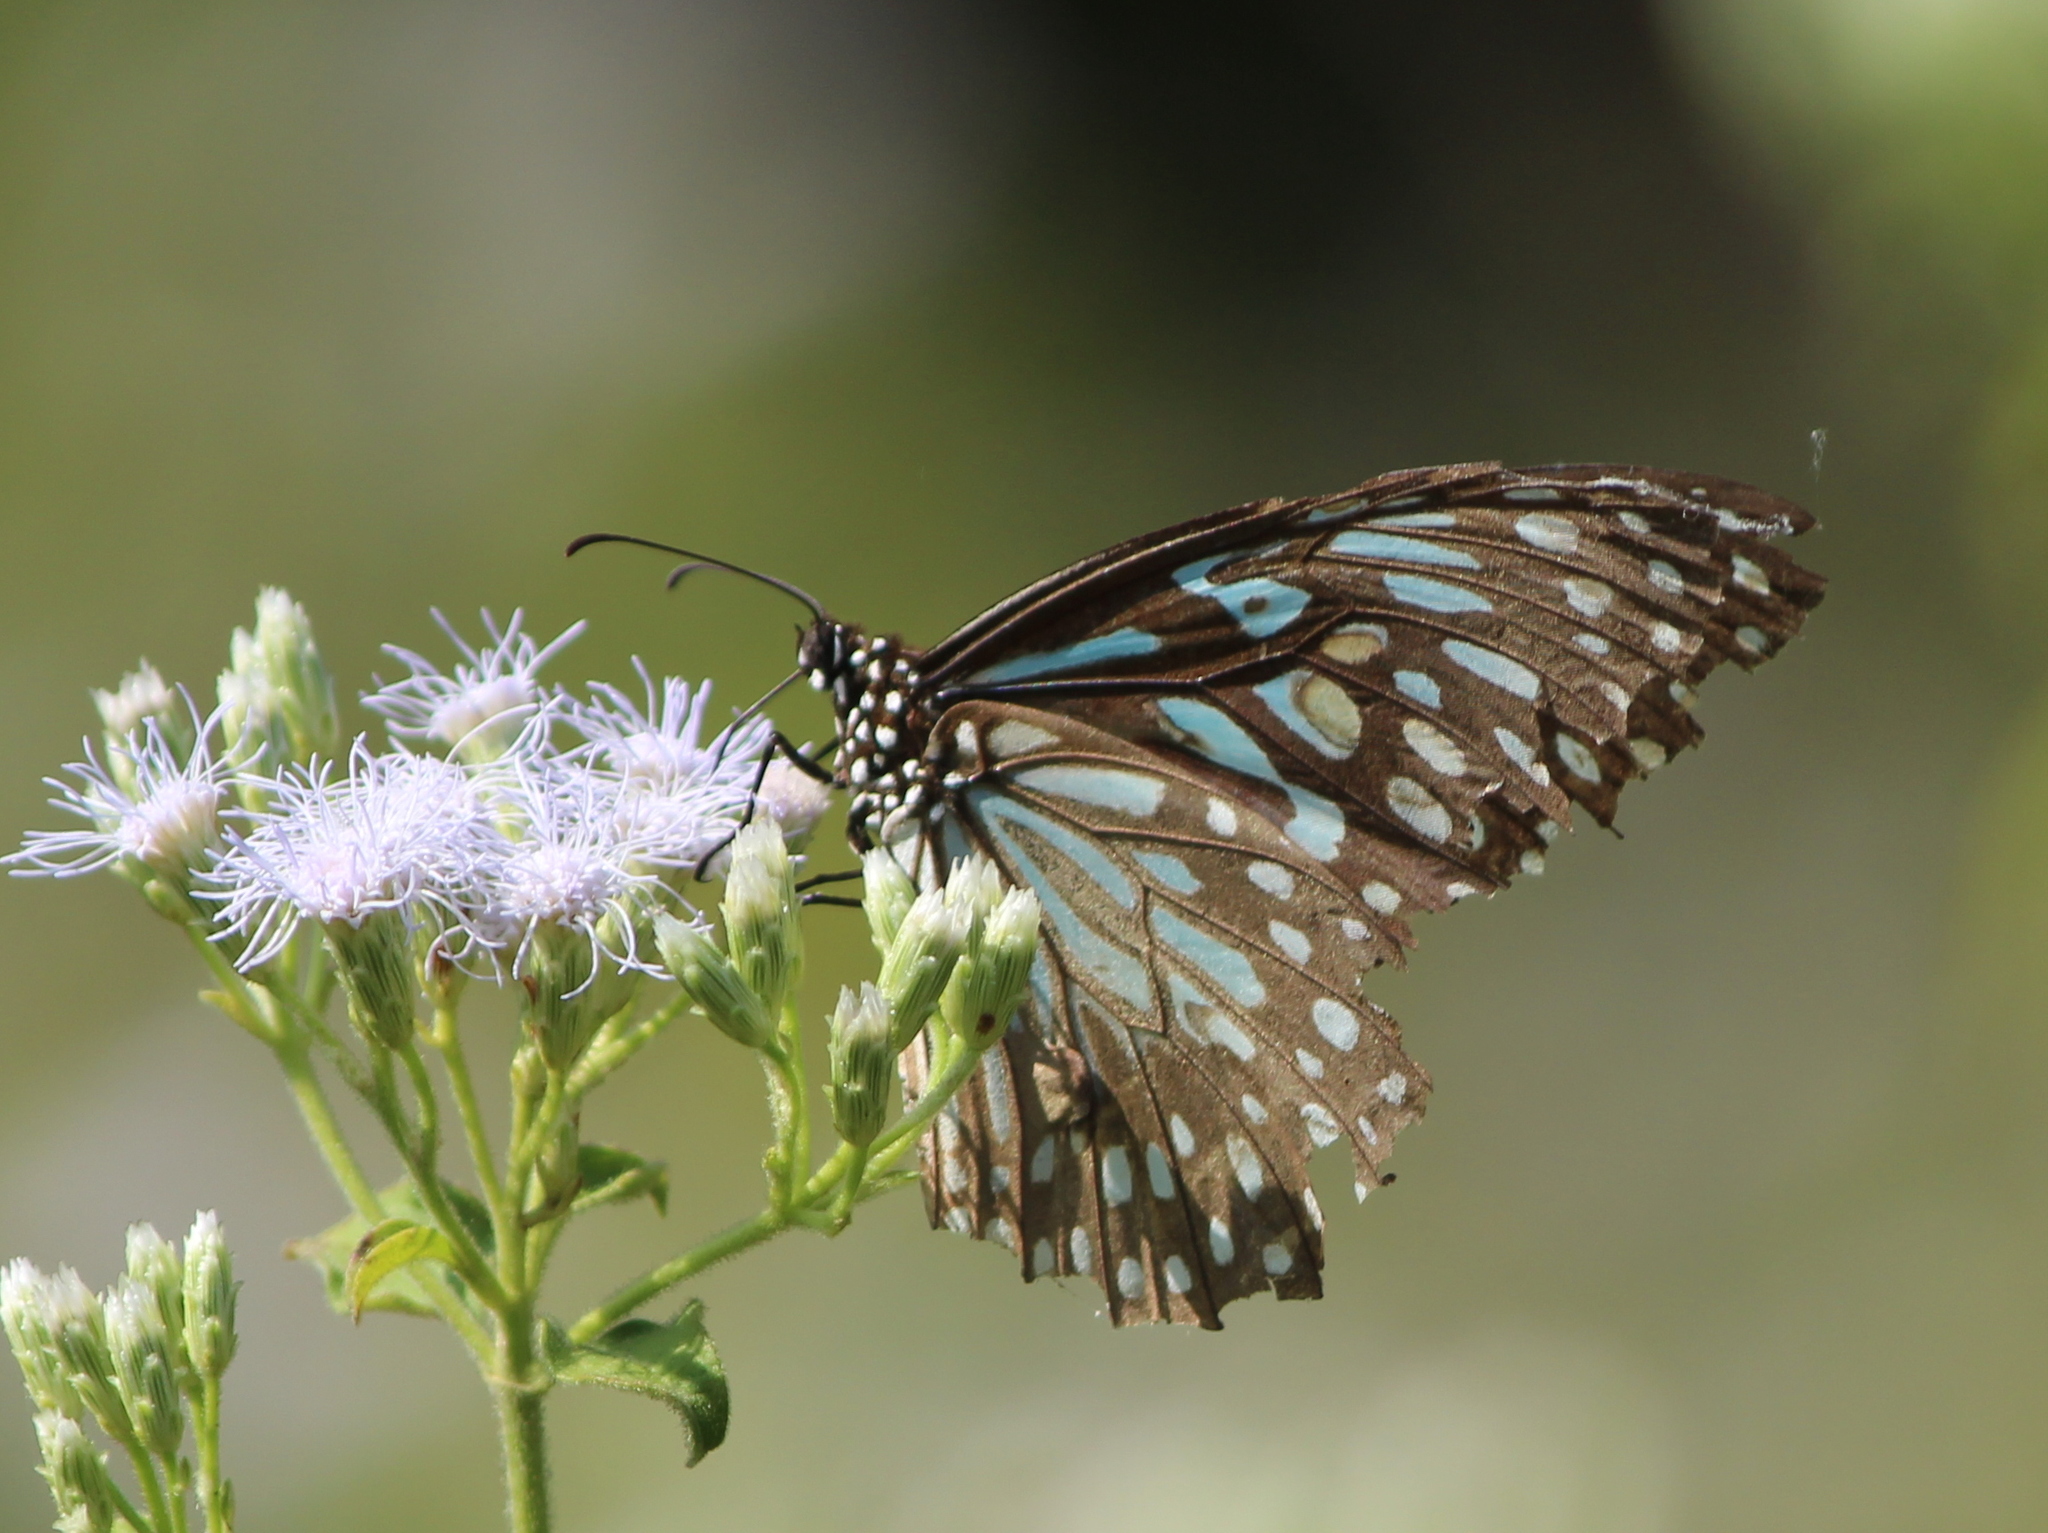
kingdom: Animalia
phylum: Arthropoda
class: Insecta
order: Lepidoptera
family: Nymphalidae
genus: Tirumala
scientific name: Tirumala septentrionis
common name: Dark blue tiger butterfly
